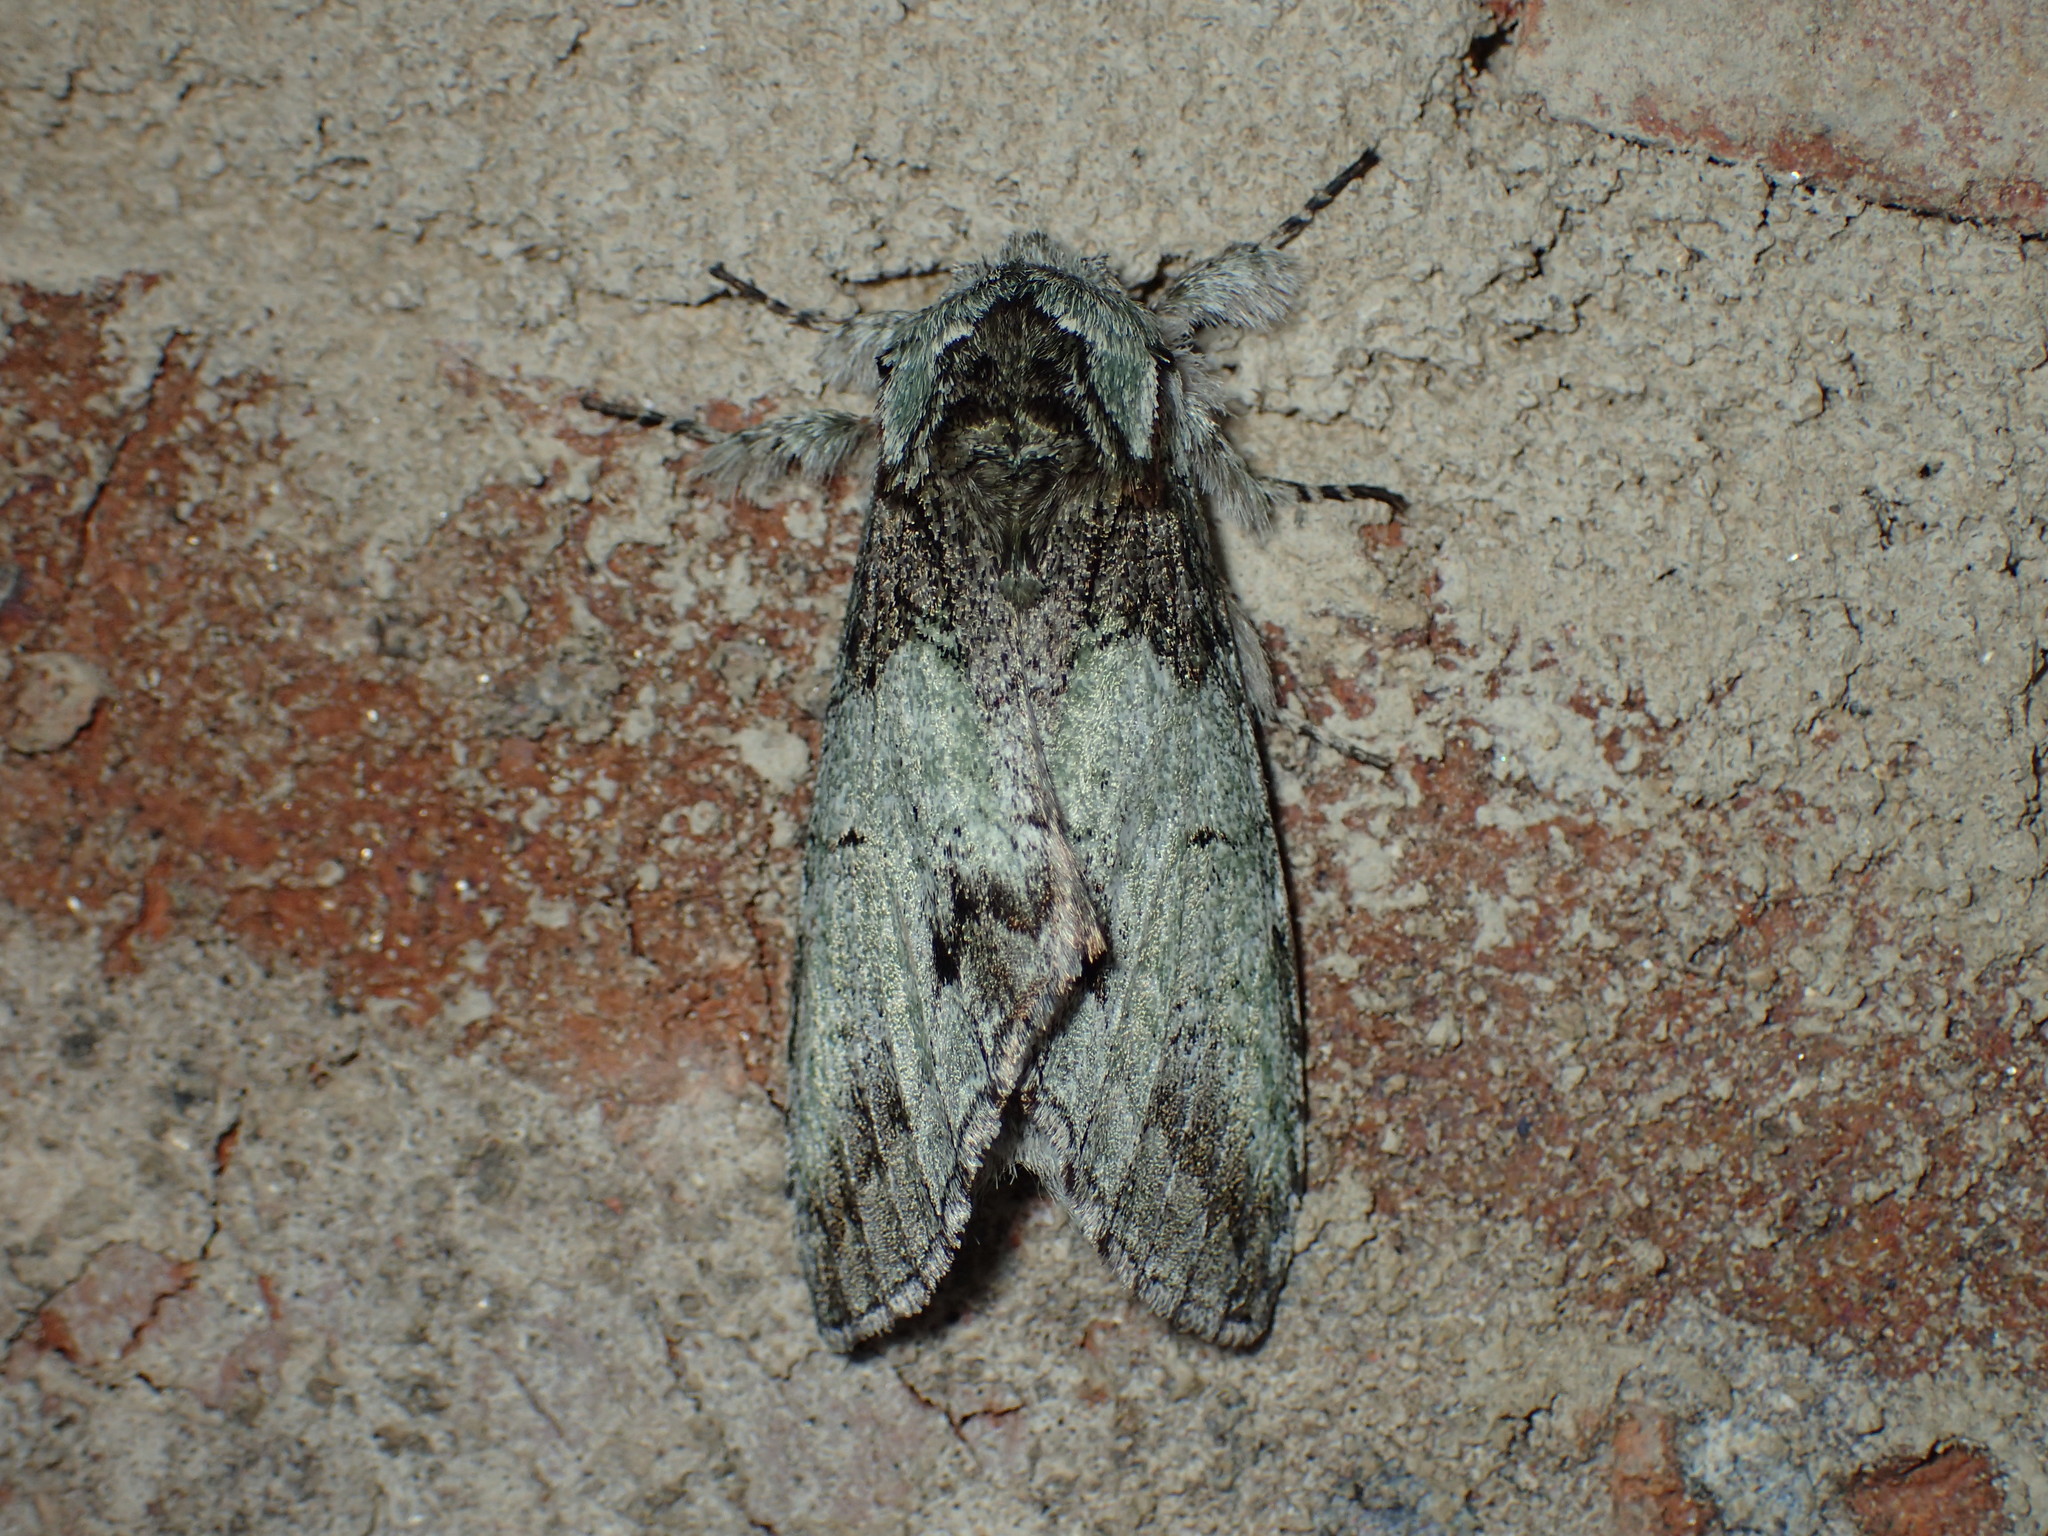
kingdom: Animalia
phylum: Arthropoda
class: Insecta
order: Lepidoptera
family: Notodontidae
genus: Macrurocampa
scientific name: Macrurocampa marthesia
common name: Mottled prominent
